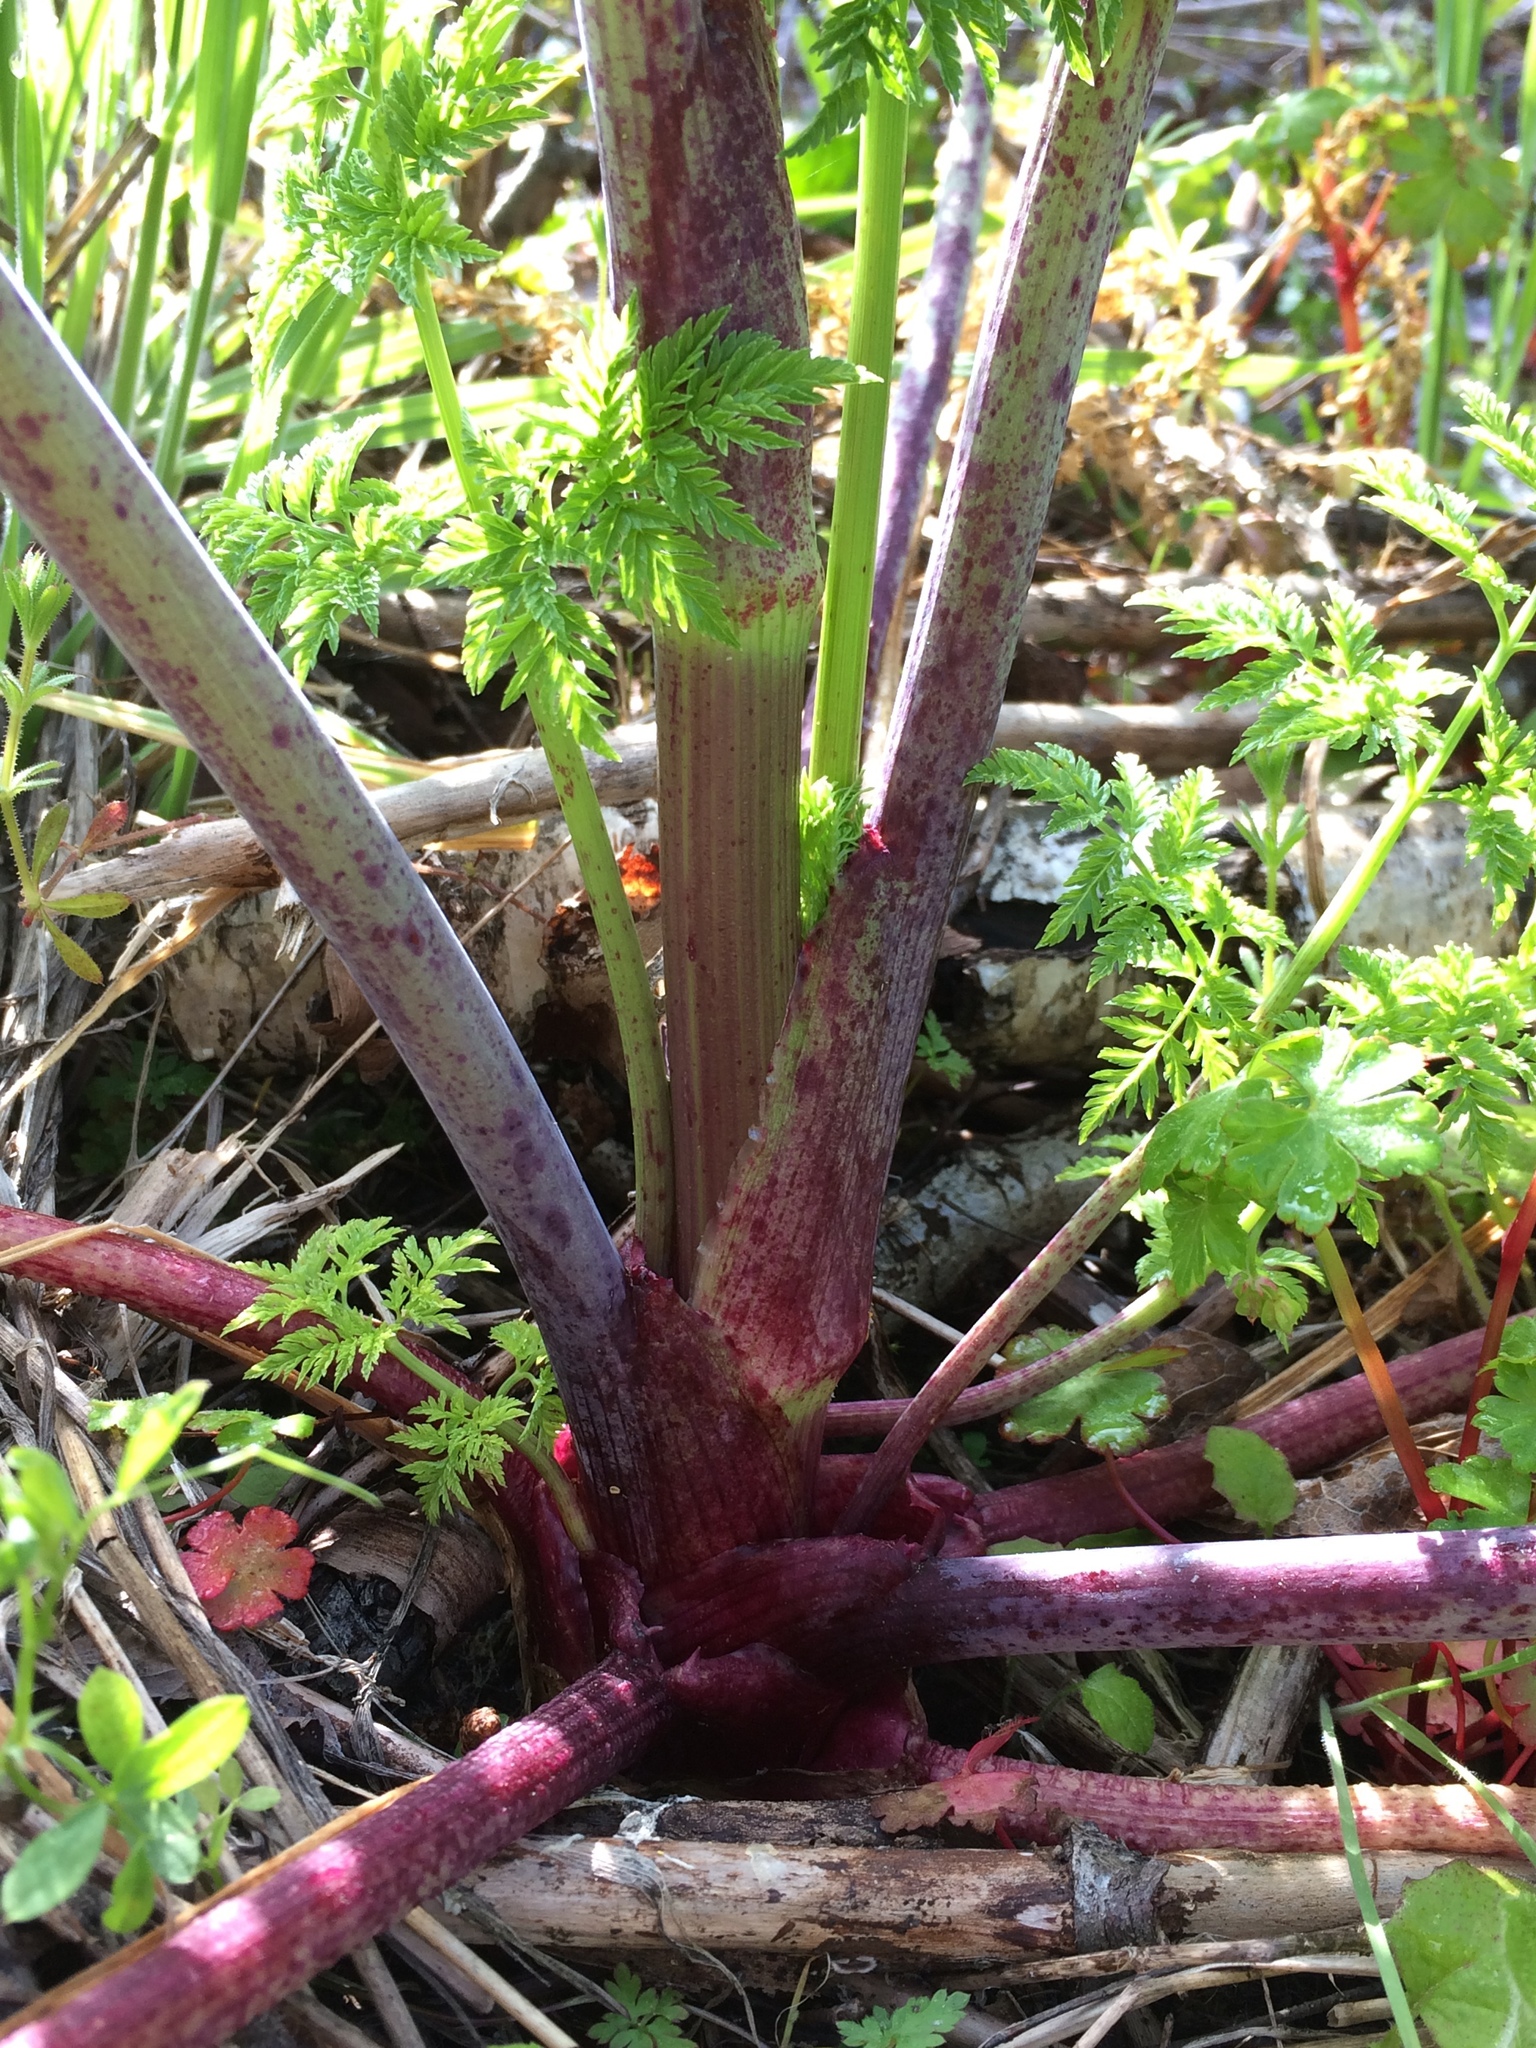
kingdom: Plantae
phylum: Tracheophyta
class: Magnoliopsida
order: Apiales
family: Apiaceae
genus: Conium
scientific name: Conium maculatum
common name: Hemlock
